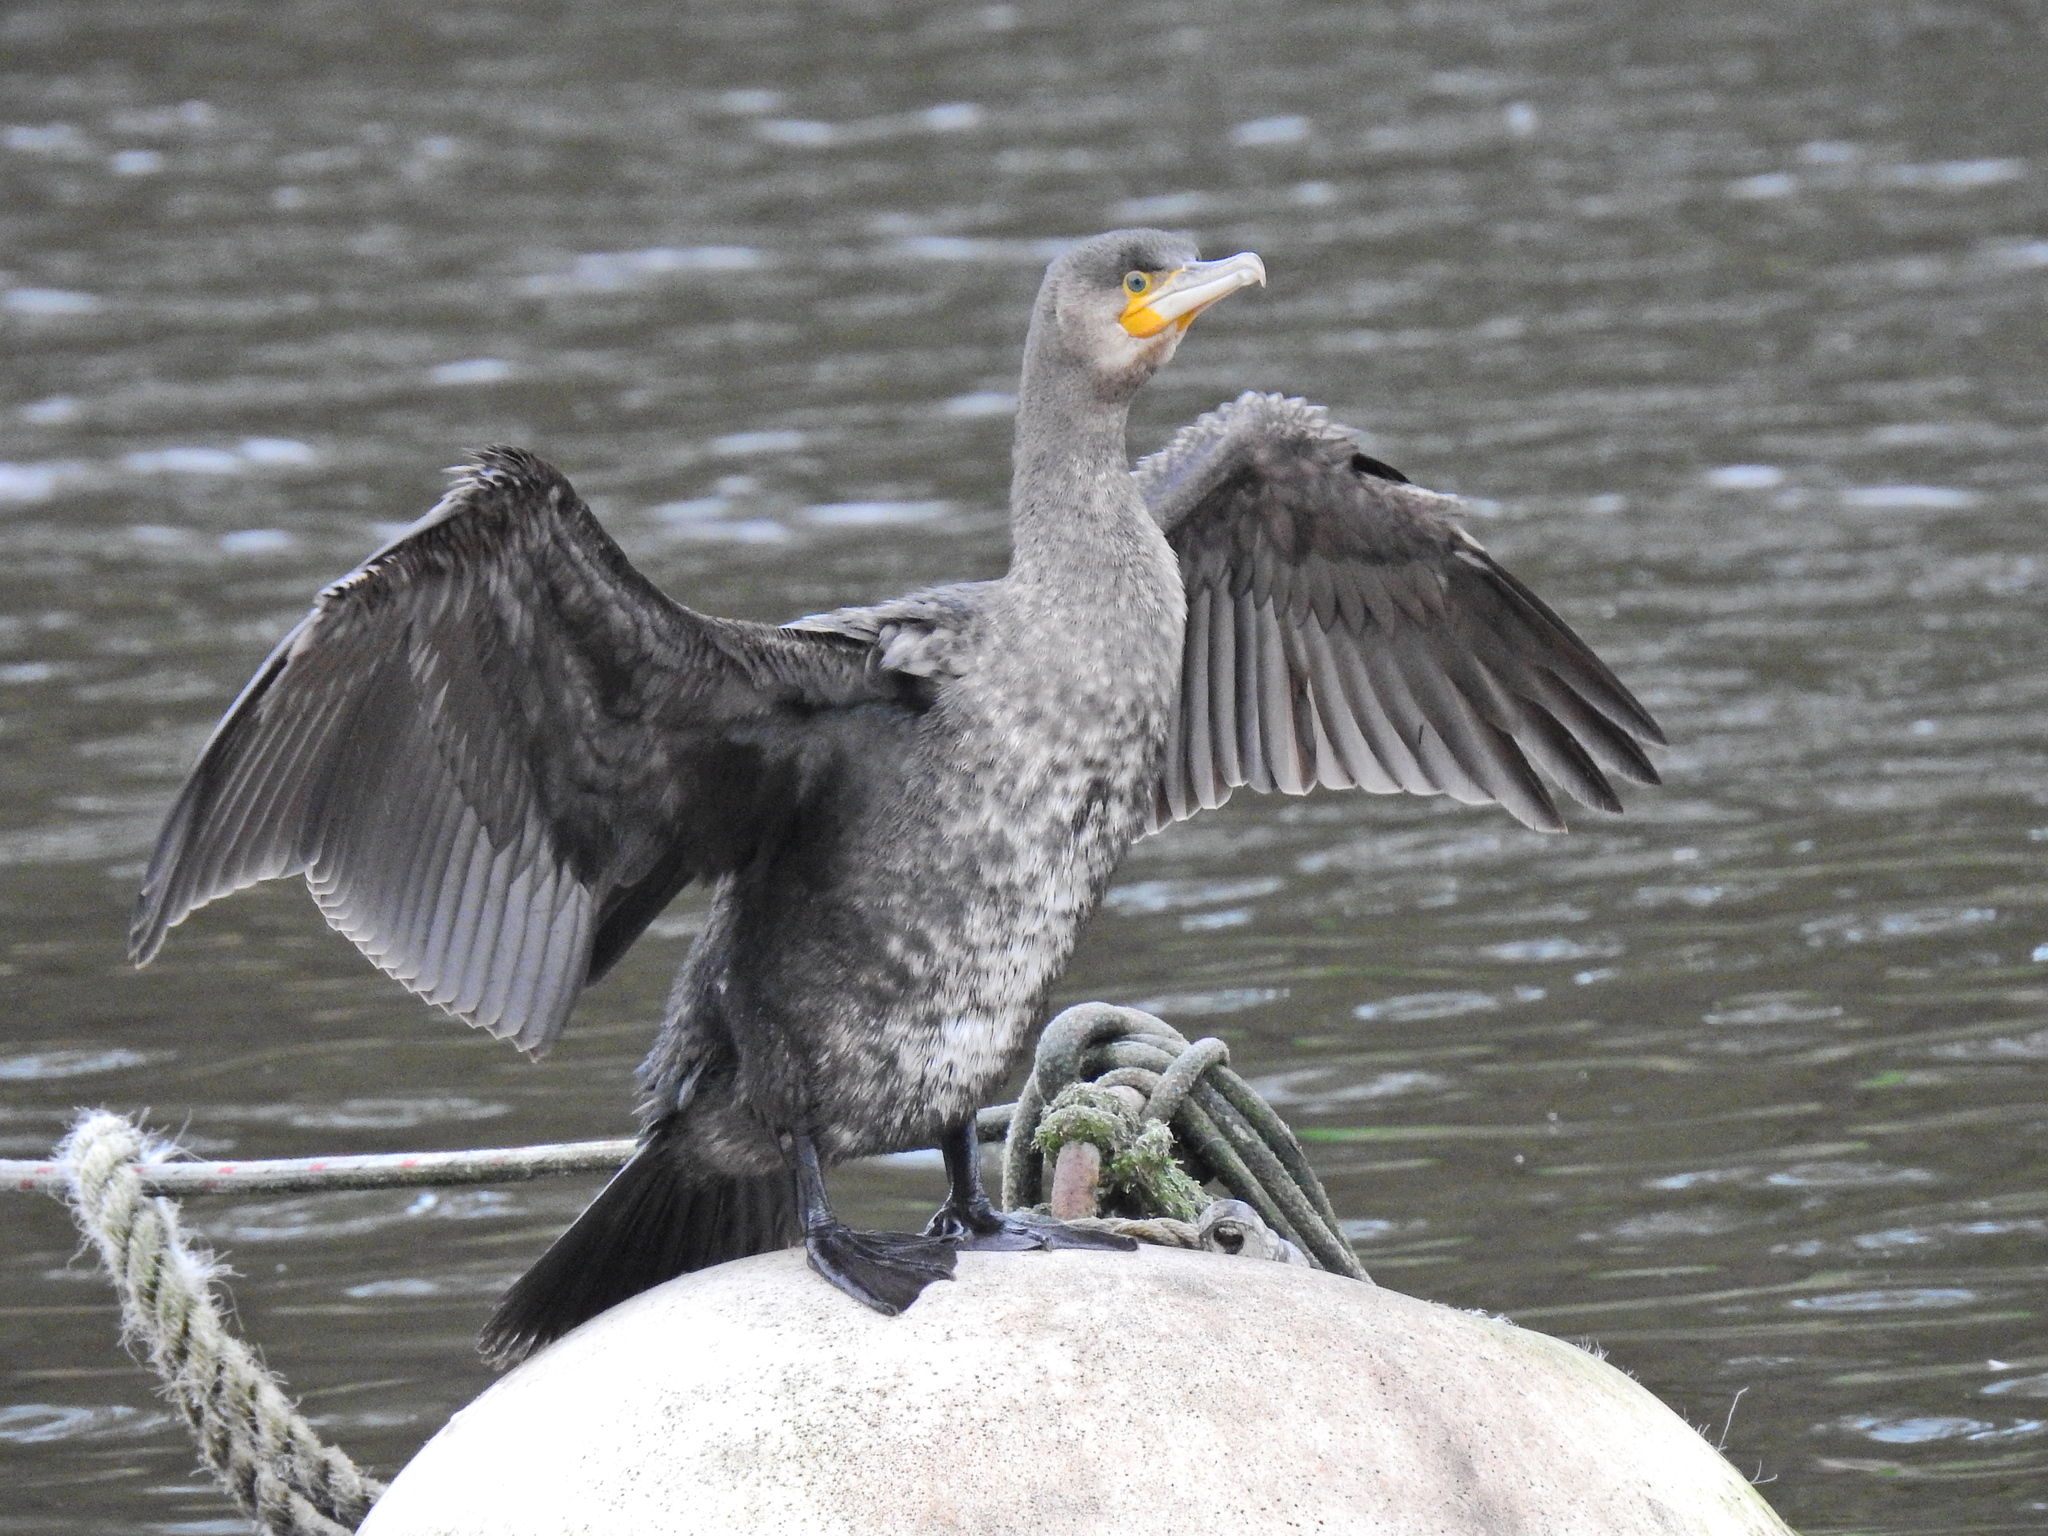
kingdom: Animalia
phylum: Chordata
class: Aves
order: Suliformes
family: Phalacrocoracidae
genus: Phalacrocorax
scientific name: Phalacrocorax carbo
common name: Great cormorant
